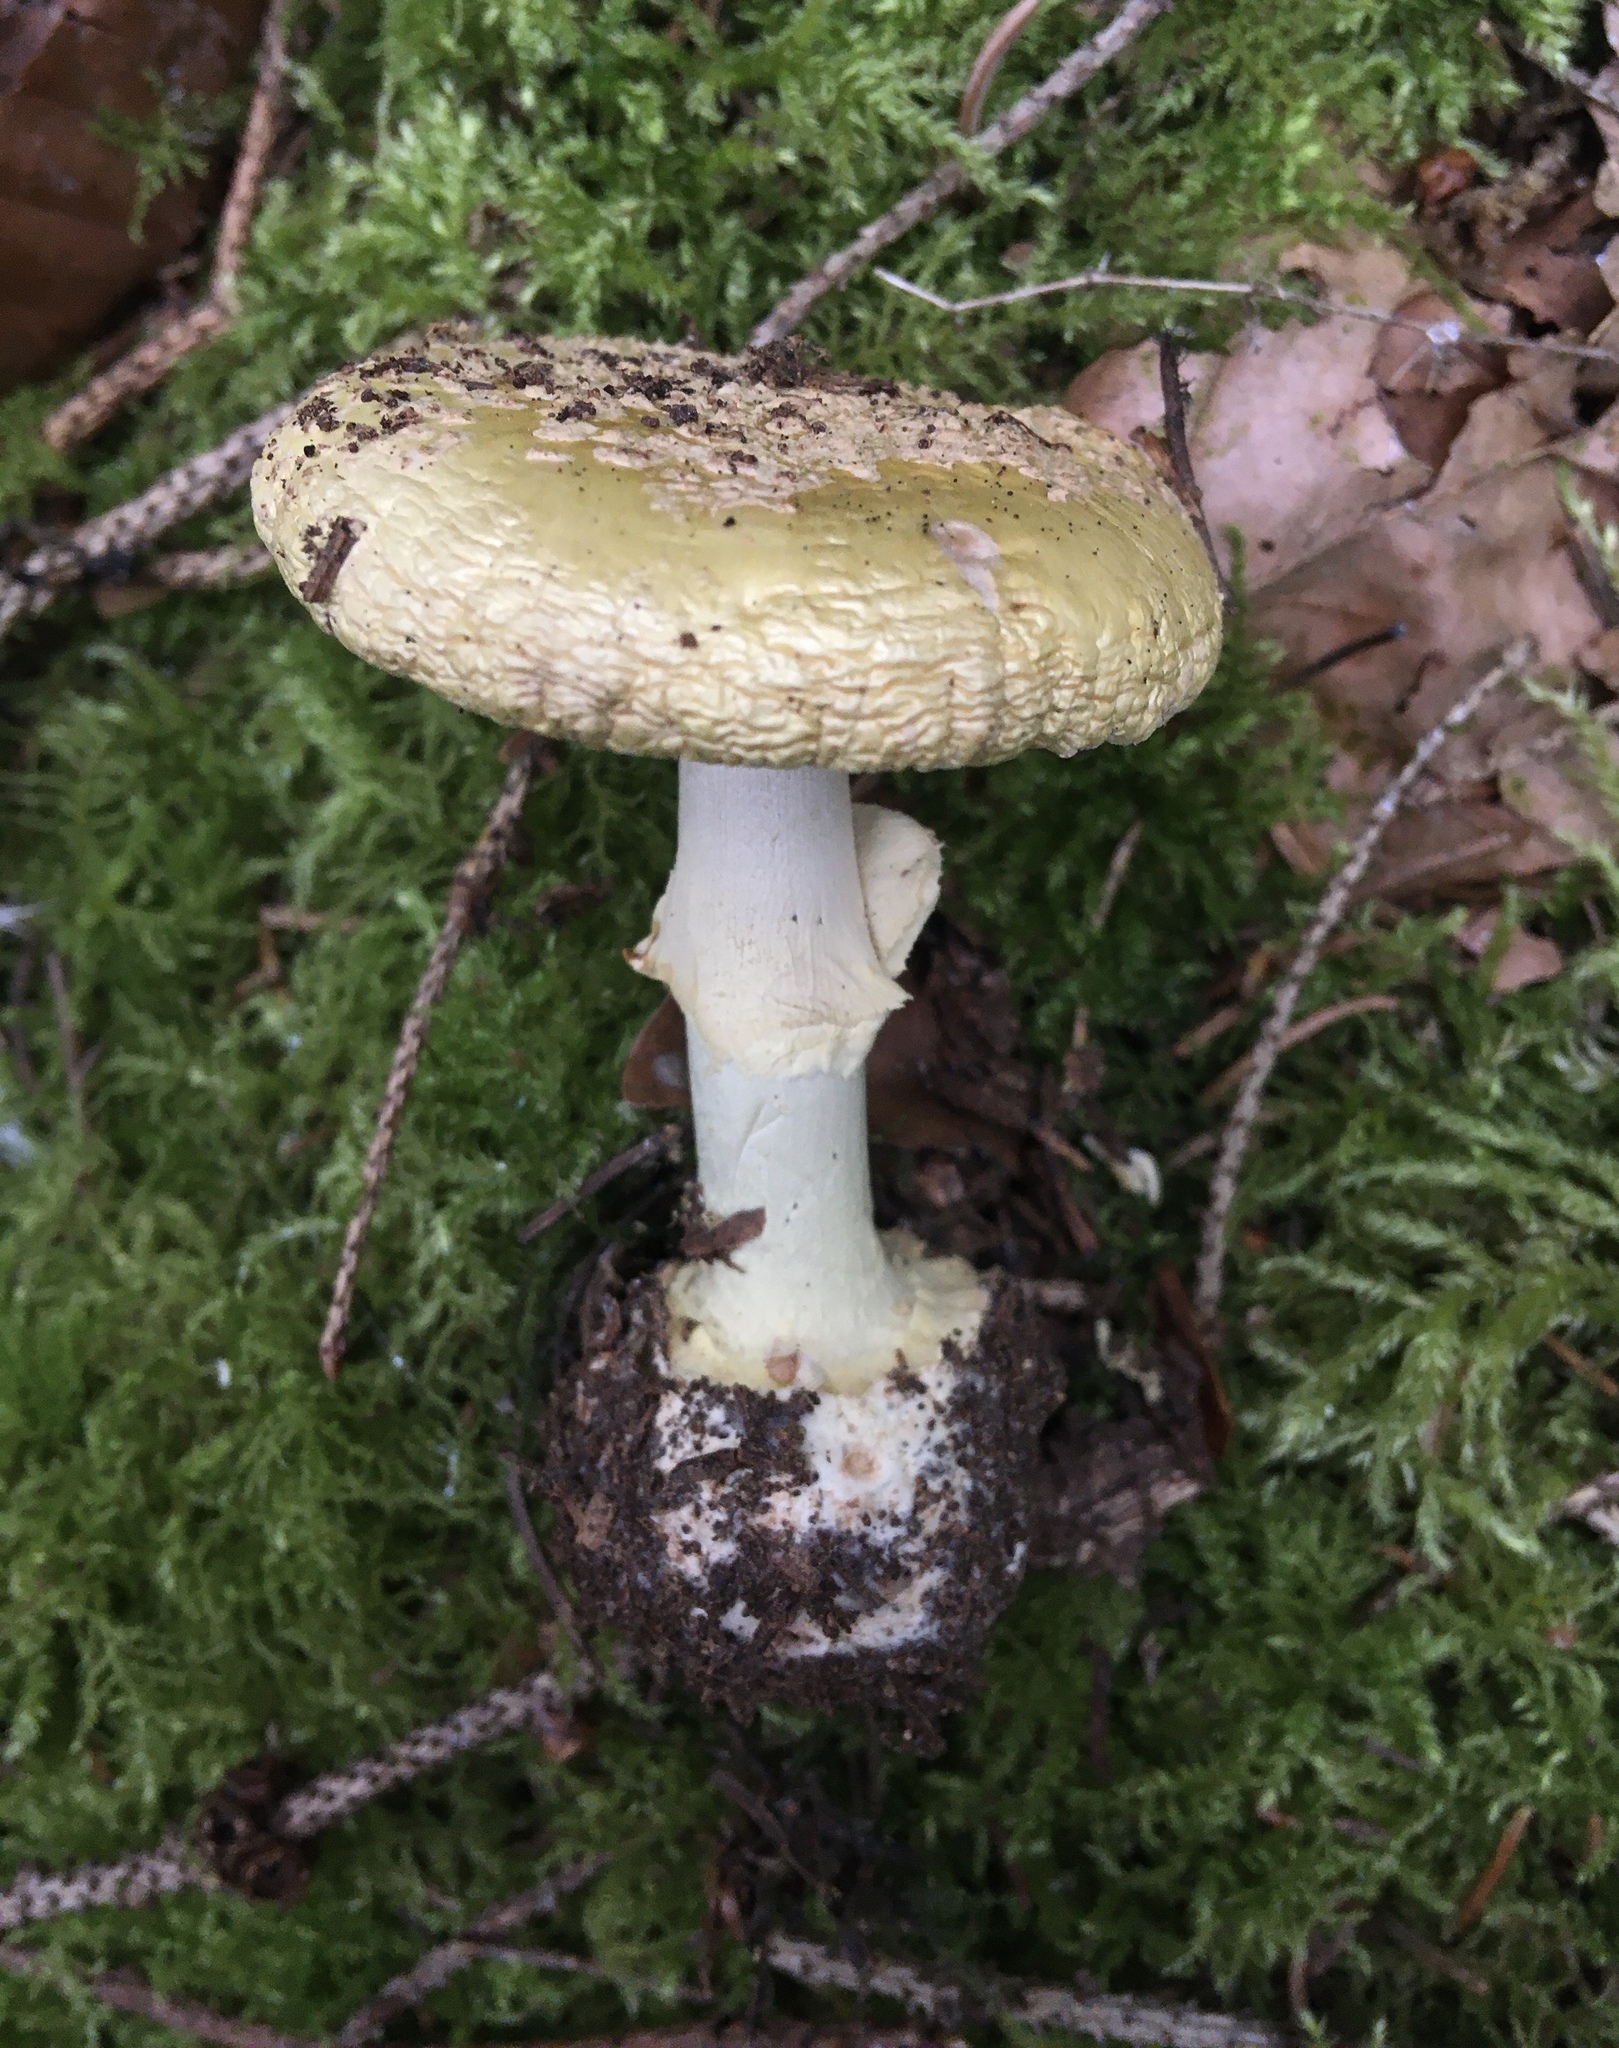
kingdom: Fungi
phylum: Basidiomycota
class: Agaricomycetes
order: Agaricales
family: Amanitaceae
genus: Amanita
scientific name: Amanita citrina
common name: False death-cap
